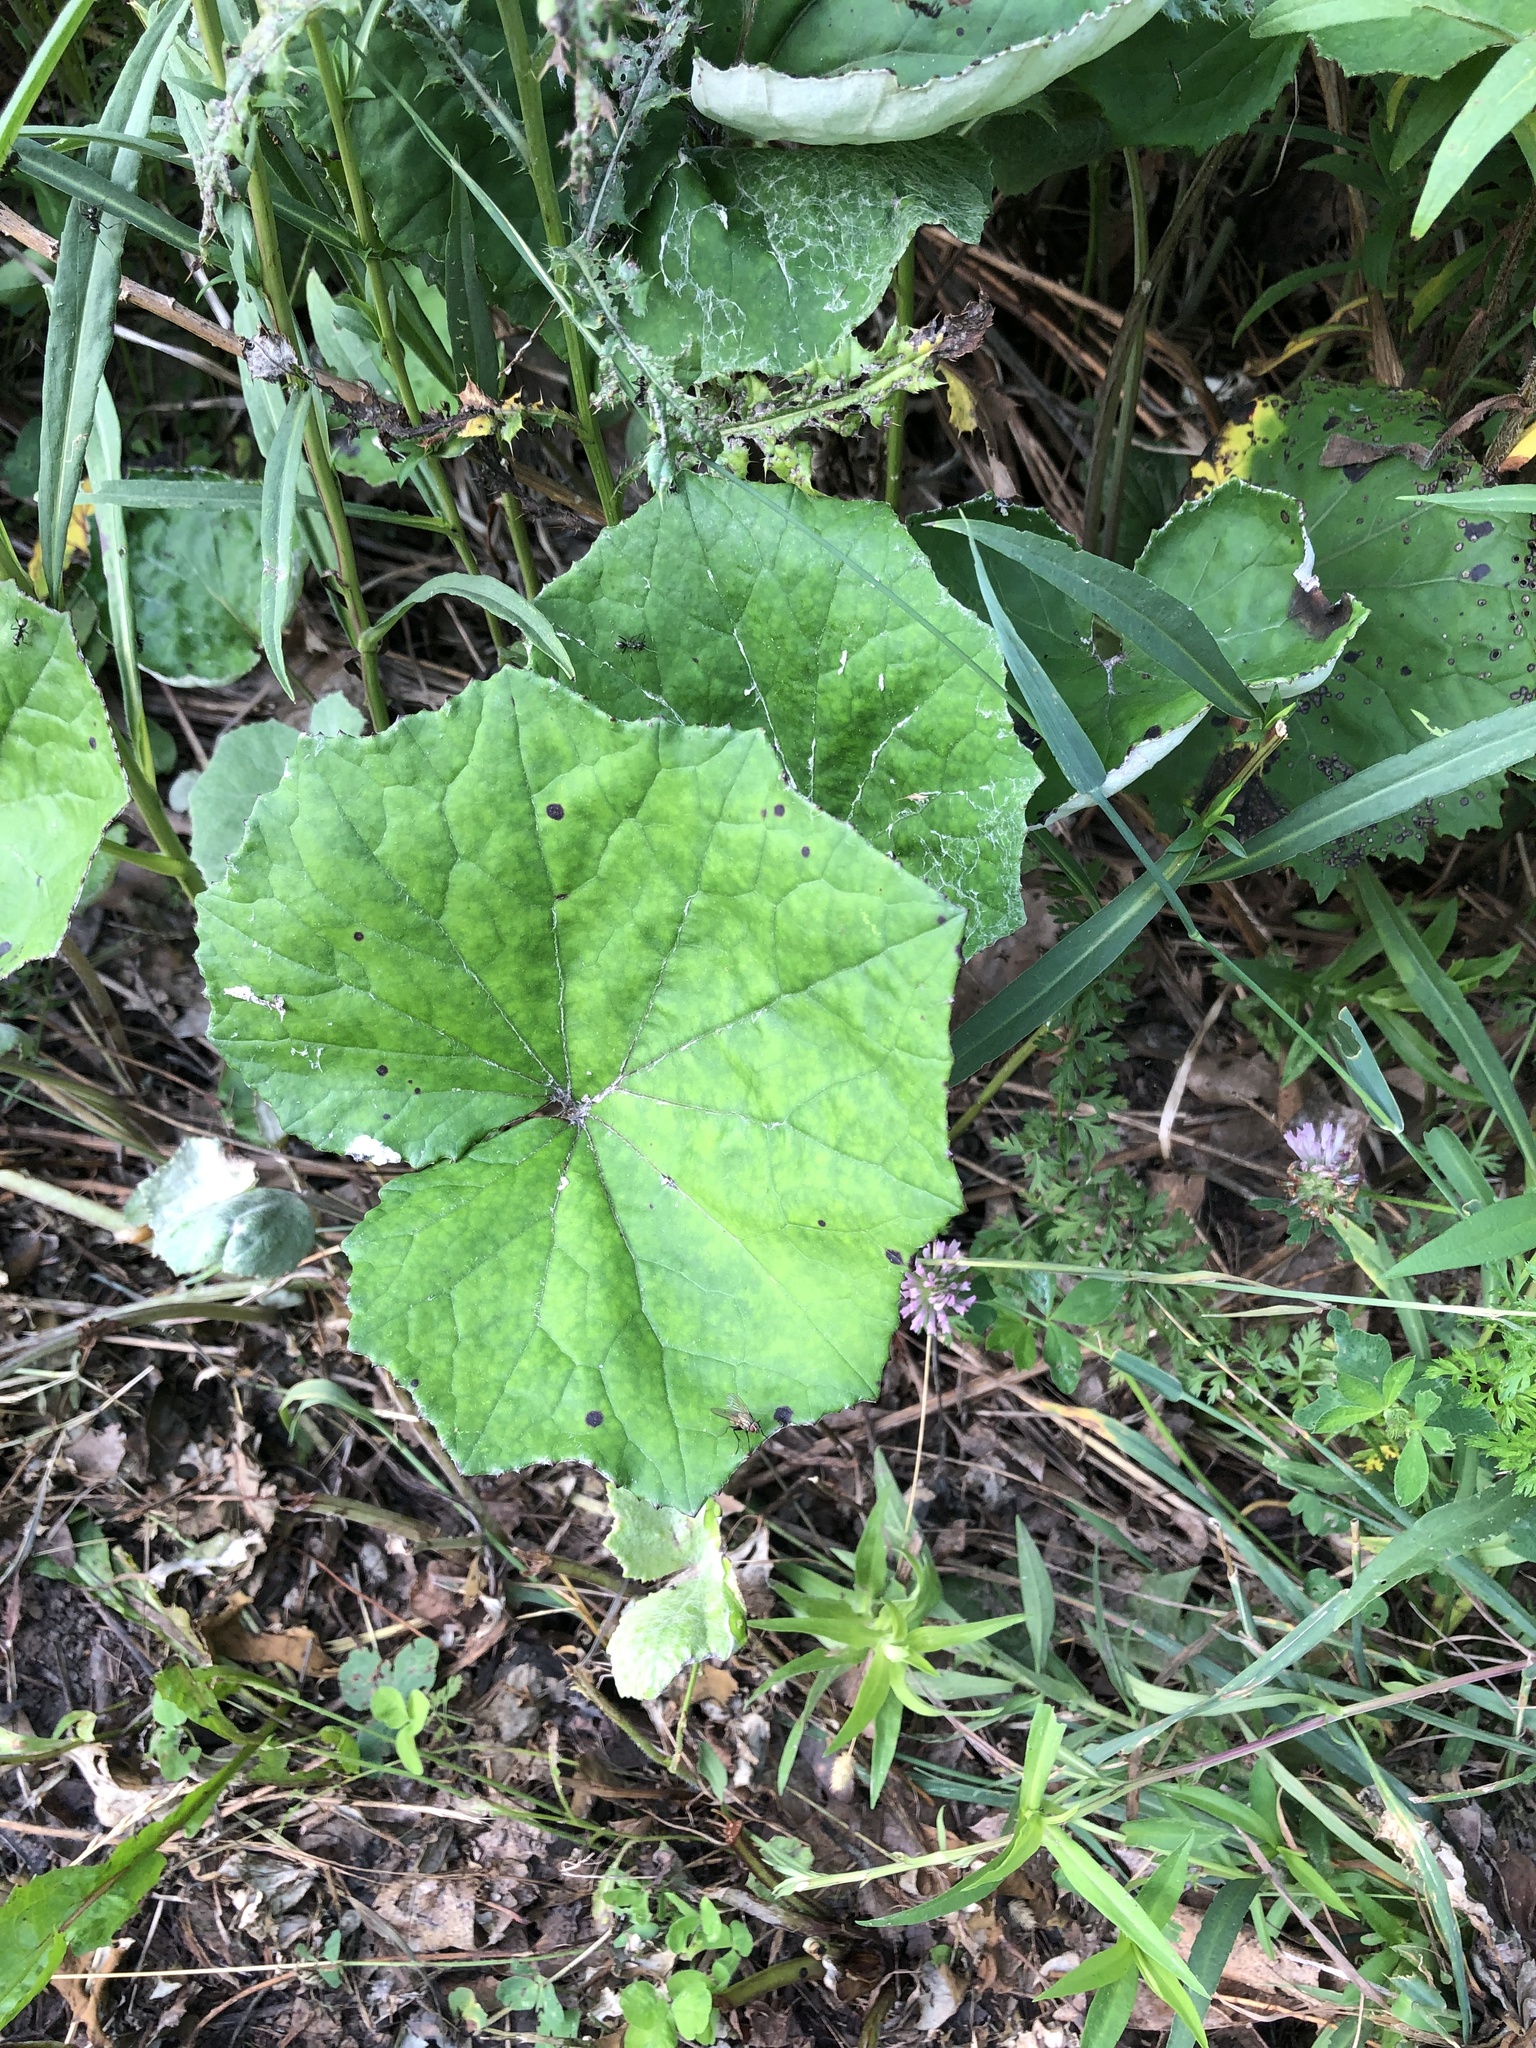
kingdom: Plantae
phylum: Tracheophyta
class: Magnoliopsida
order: Asterales
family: Asteraceae
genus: Tussilago
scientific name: Tussilago farfara
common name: Coltsfoot
